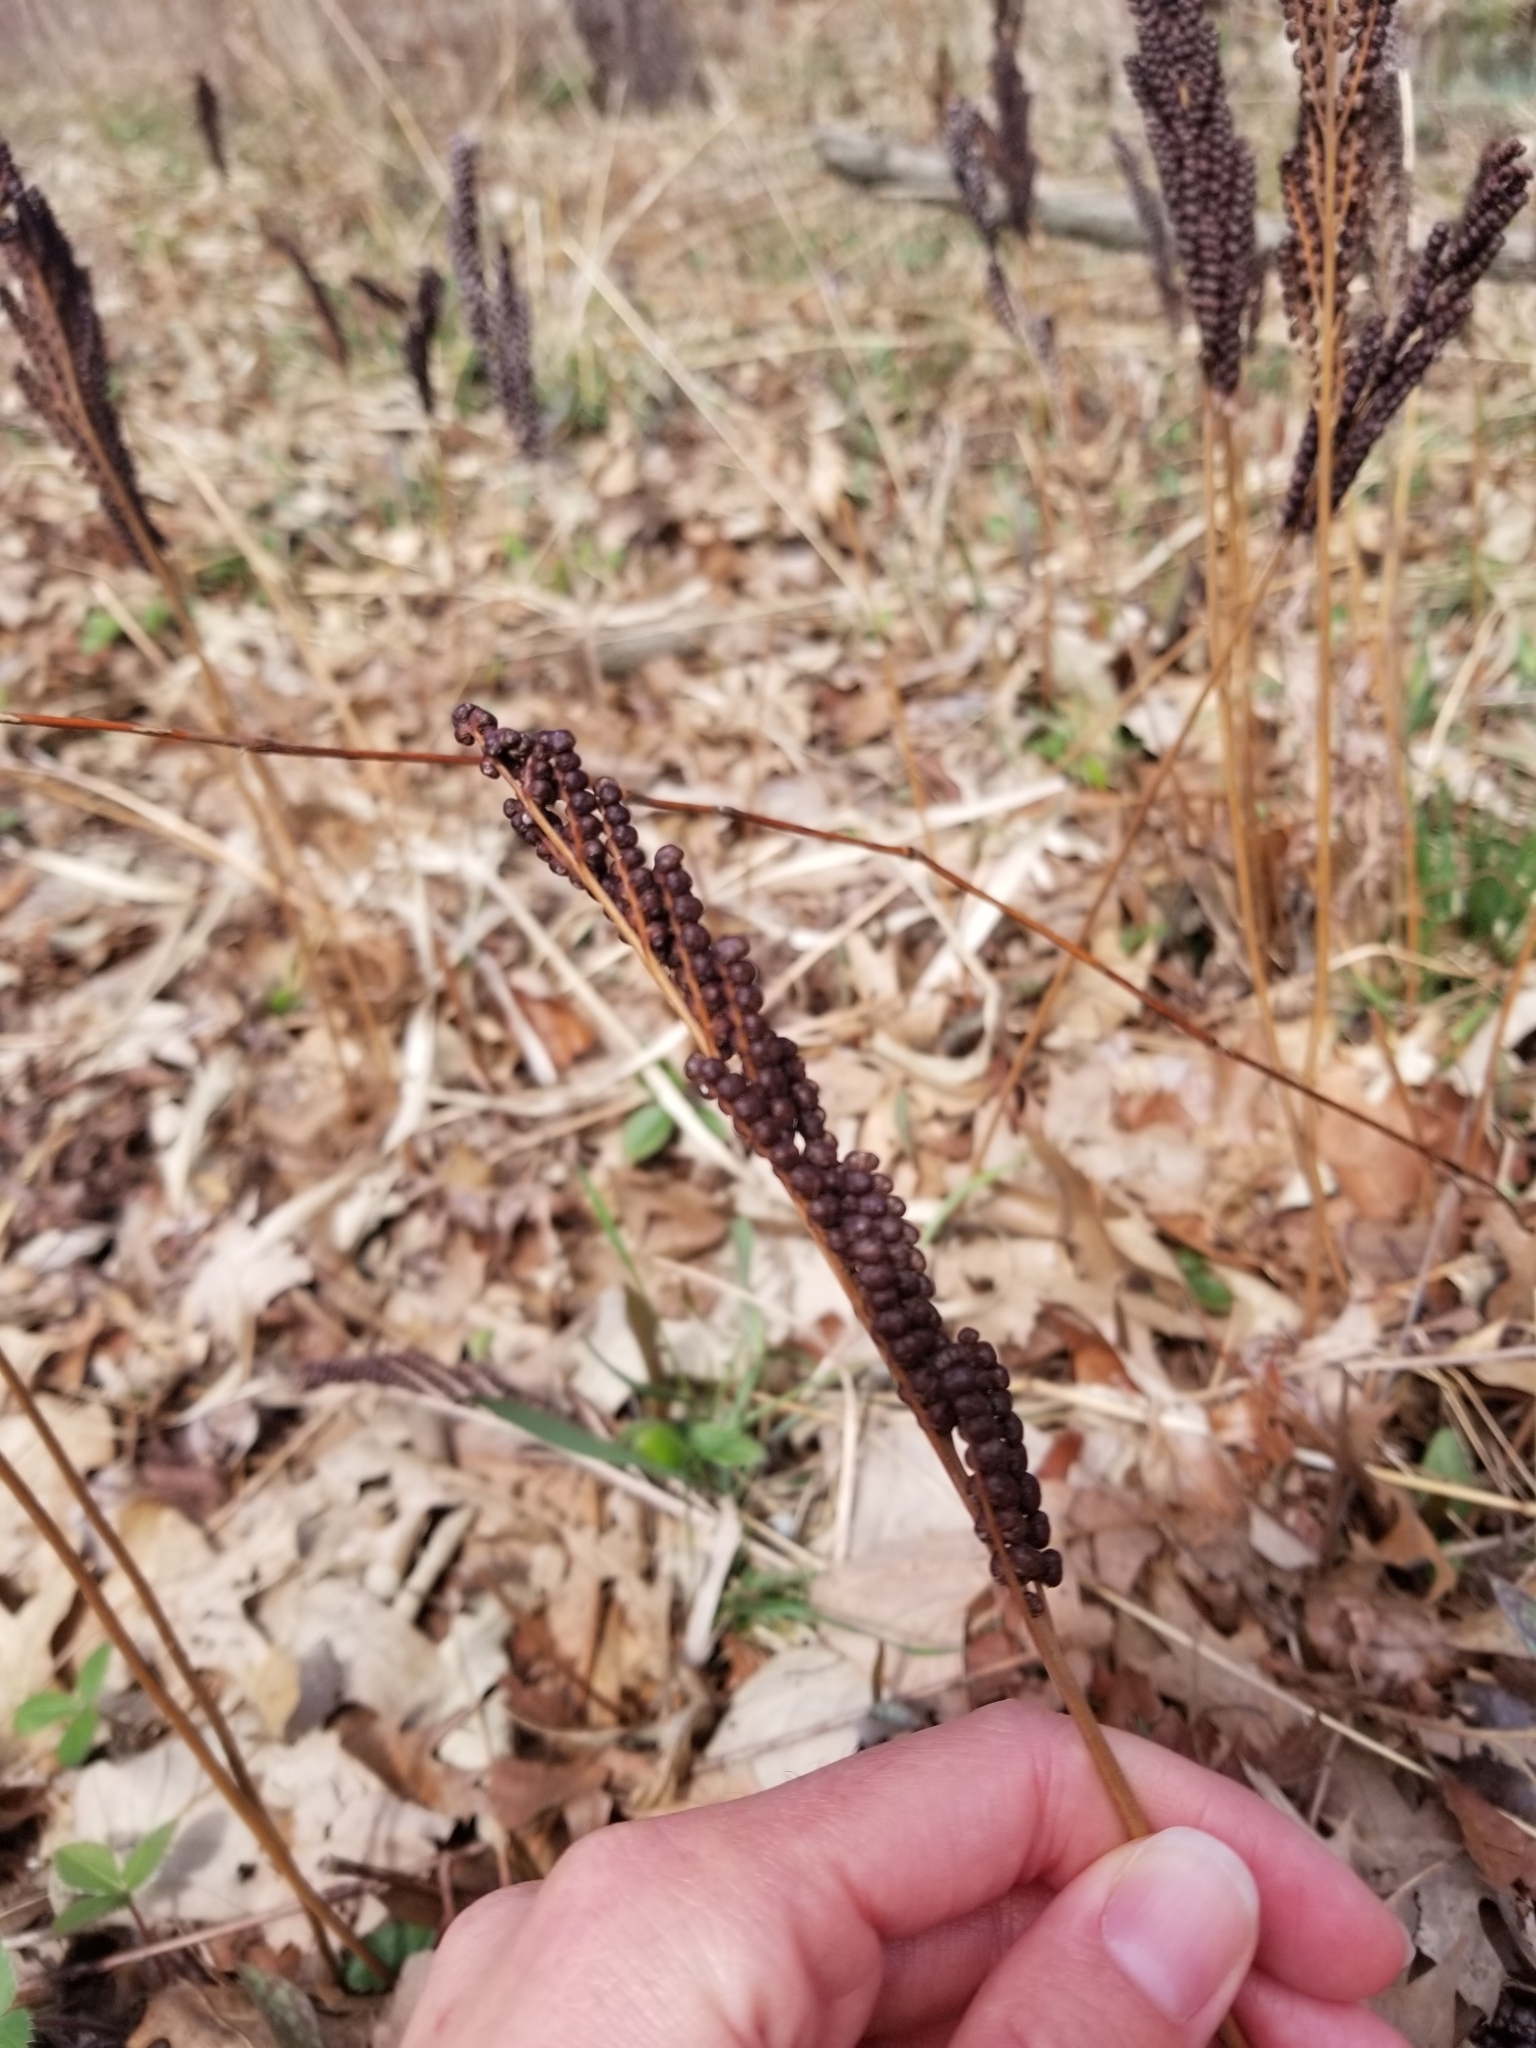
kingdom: Plantae
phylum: Tracheophyta
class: Polypodiopsida
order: Polypodiales
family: Onocleaceae
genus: Onoclea
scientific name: Onoclea sensibilis
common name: Sensitive fern
